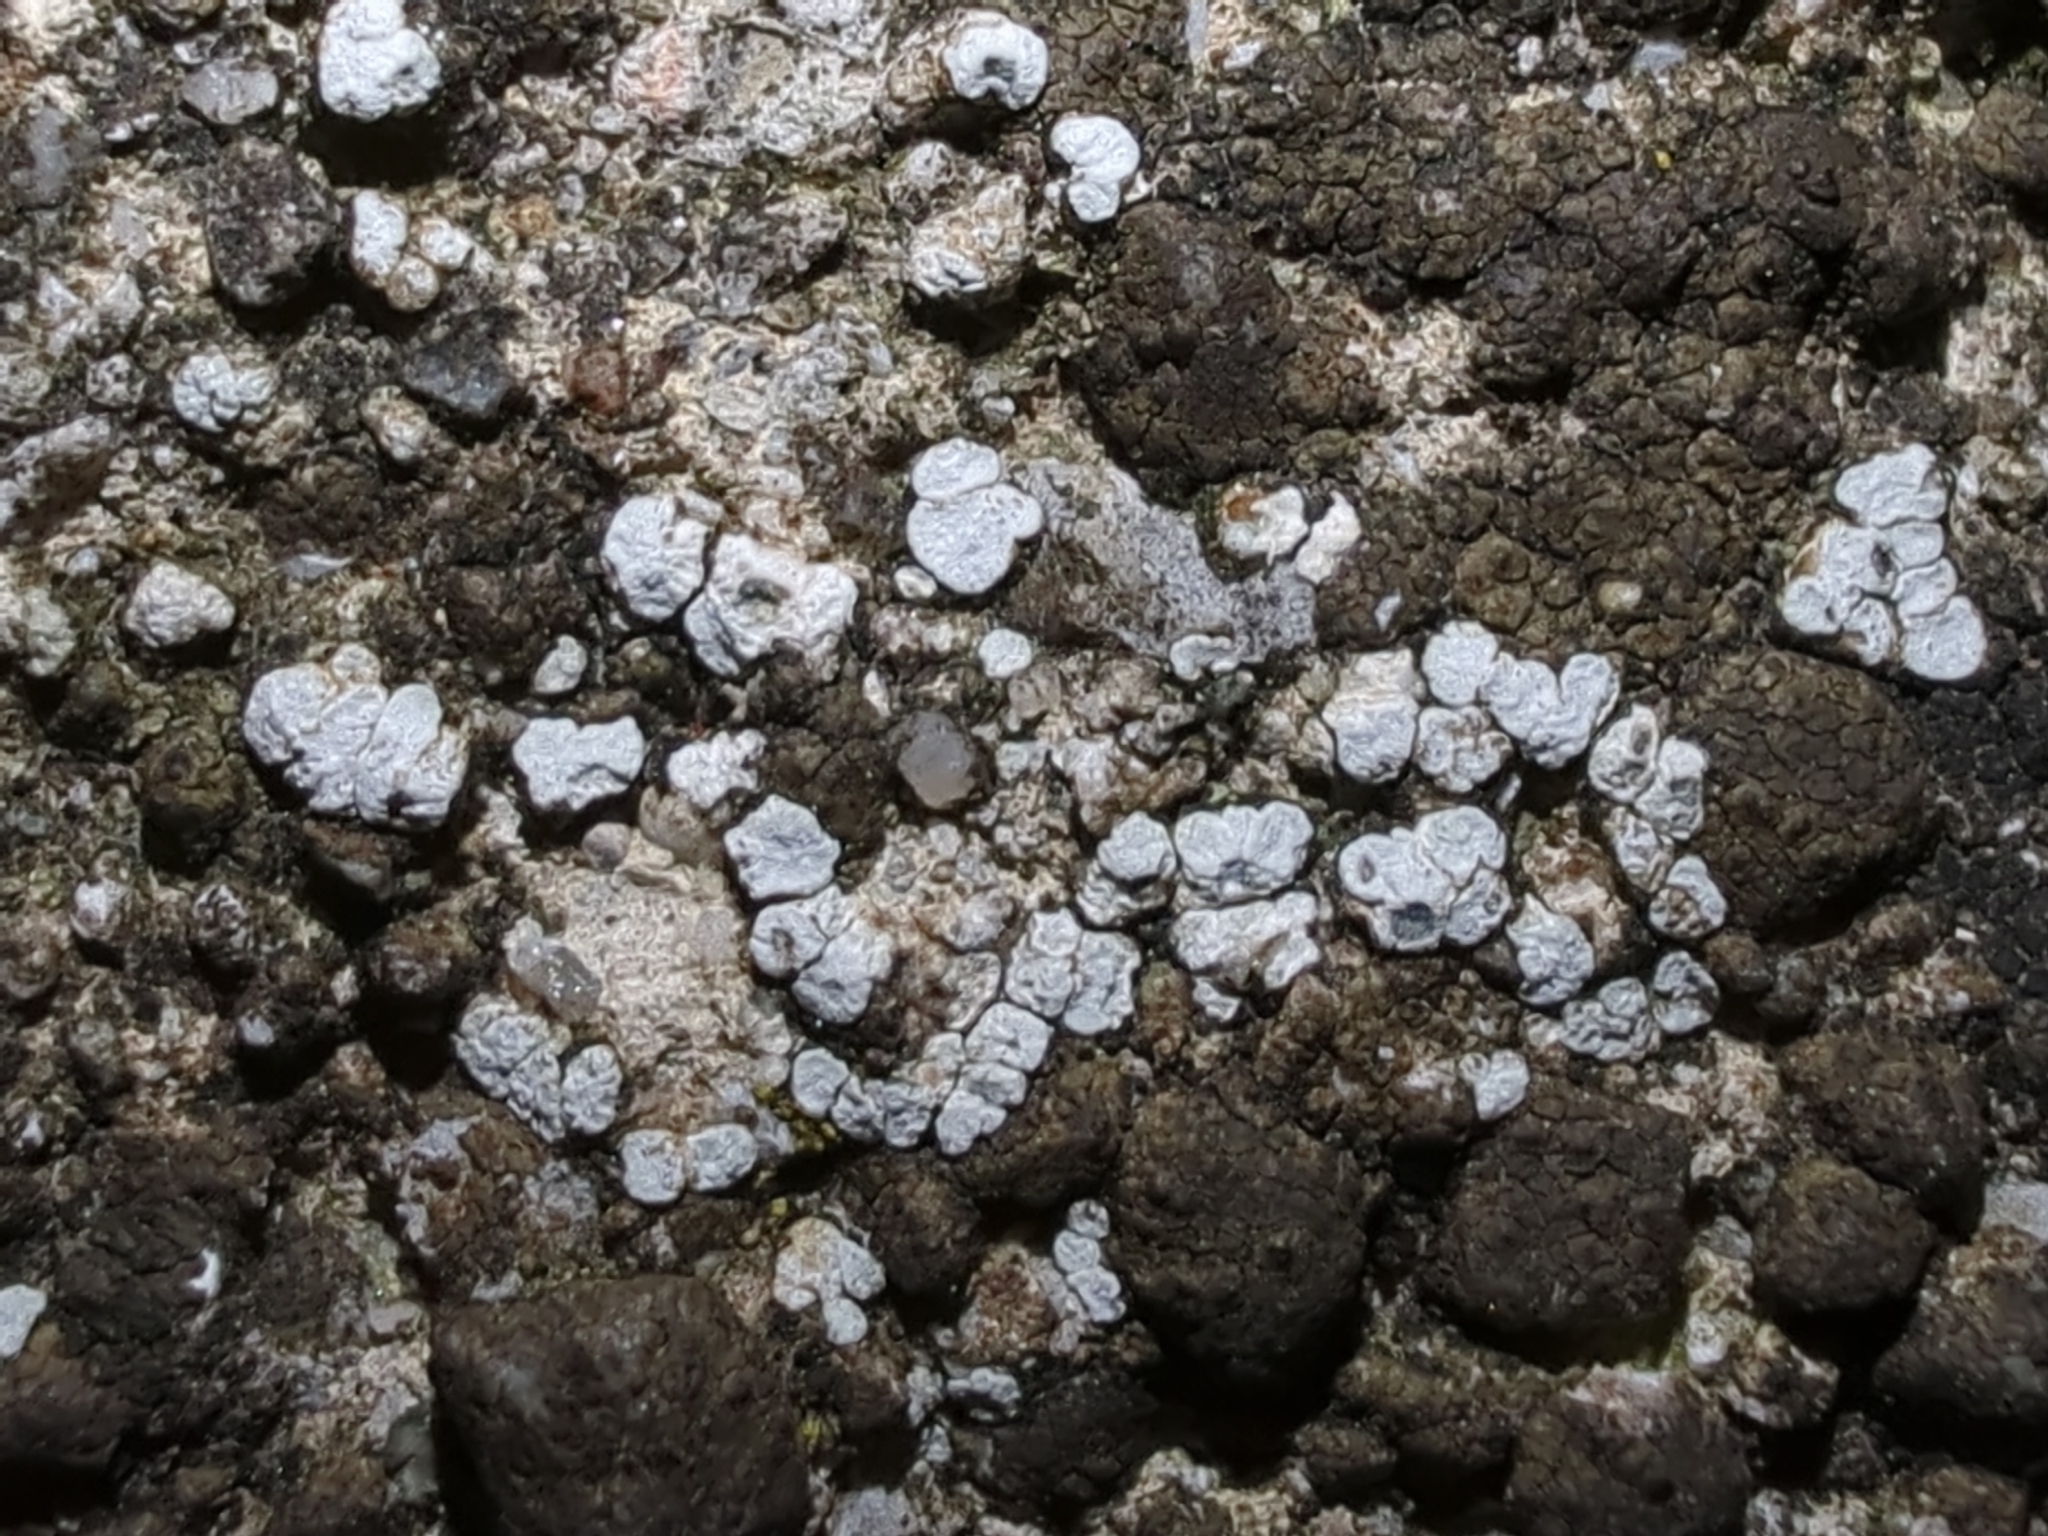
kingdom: Fungi
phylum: Ascomycota
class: Lecanoromycetes
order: Pertusariales
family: Megasporaceae
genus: Circinaria
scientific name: Circinaria contorta
